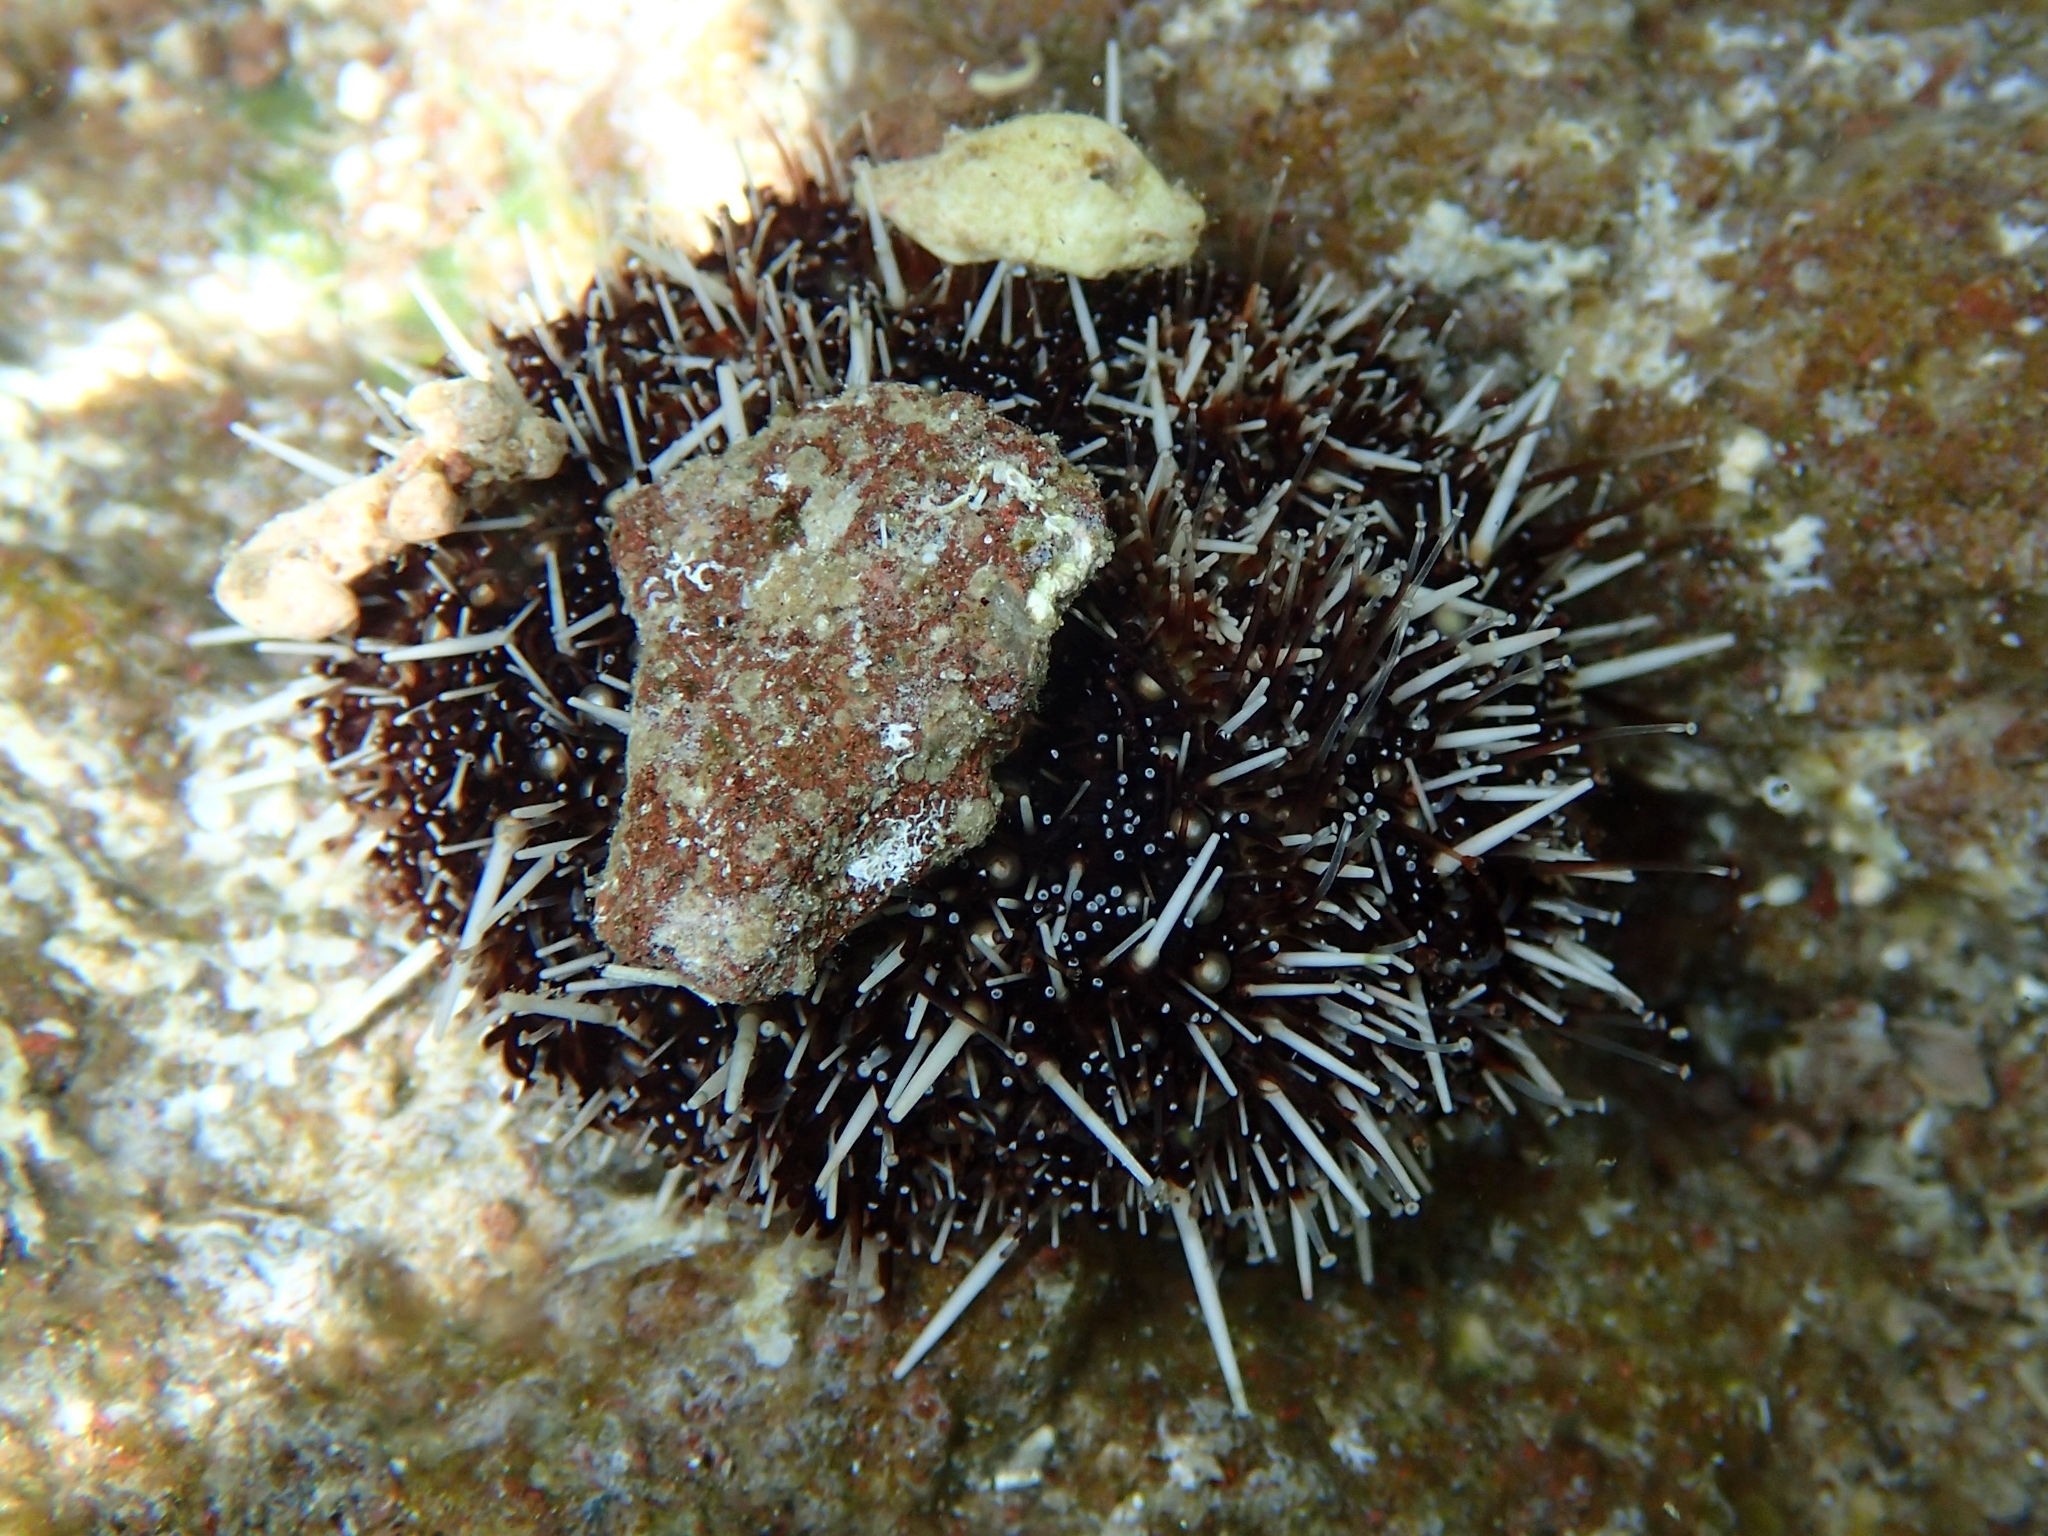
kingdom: Animalia
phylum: Echinodermata
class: Echinoidea
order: Camarodonta
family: Toxopneustidae
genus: Tripneustes
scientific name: Tripneustes ventricosus
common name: West indian sea egg
